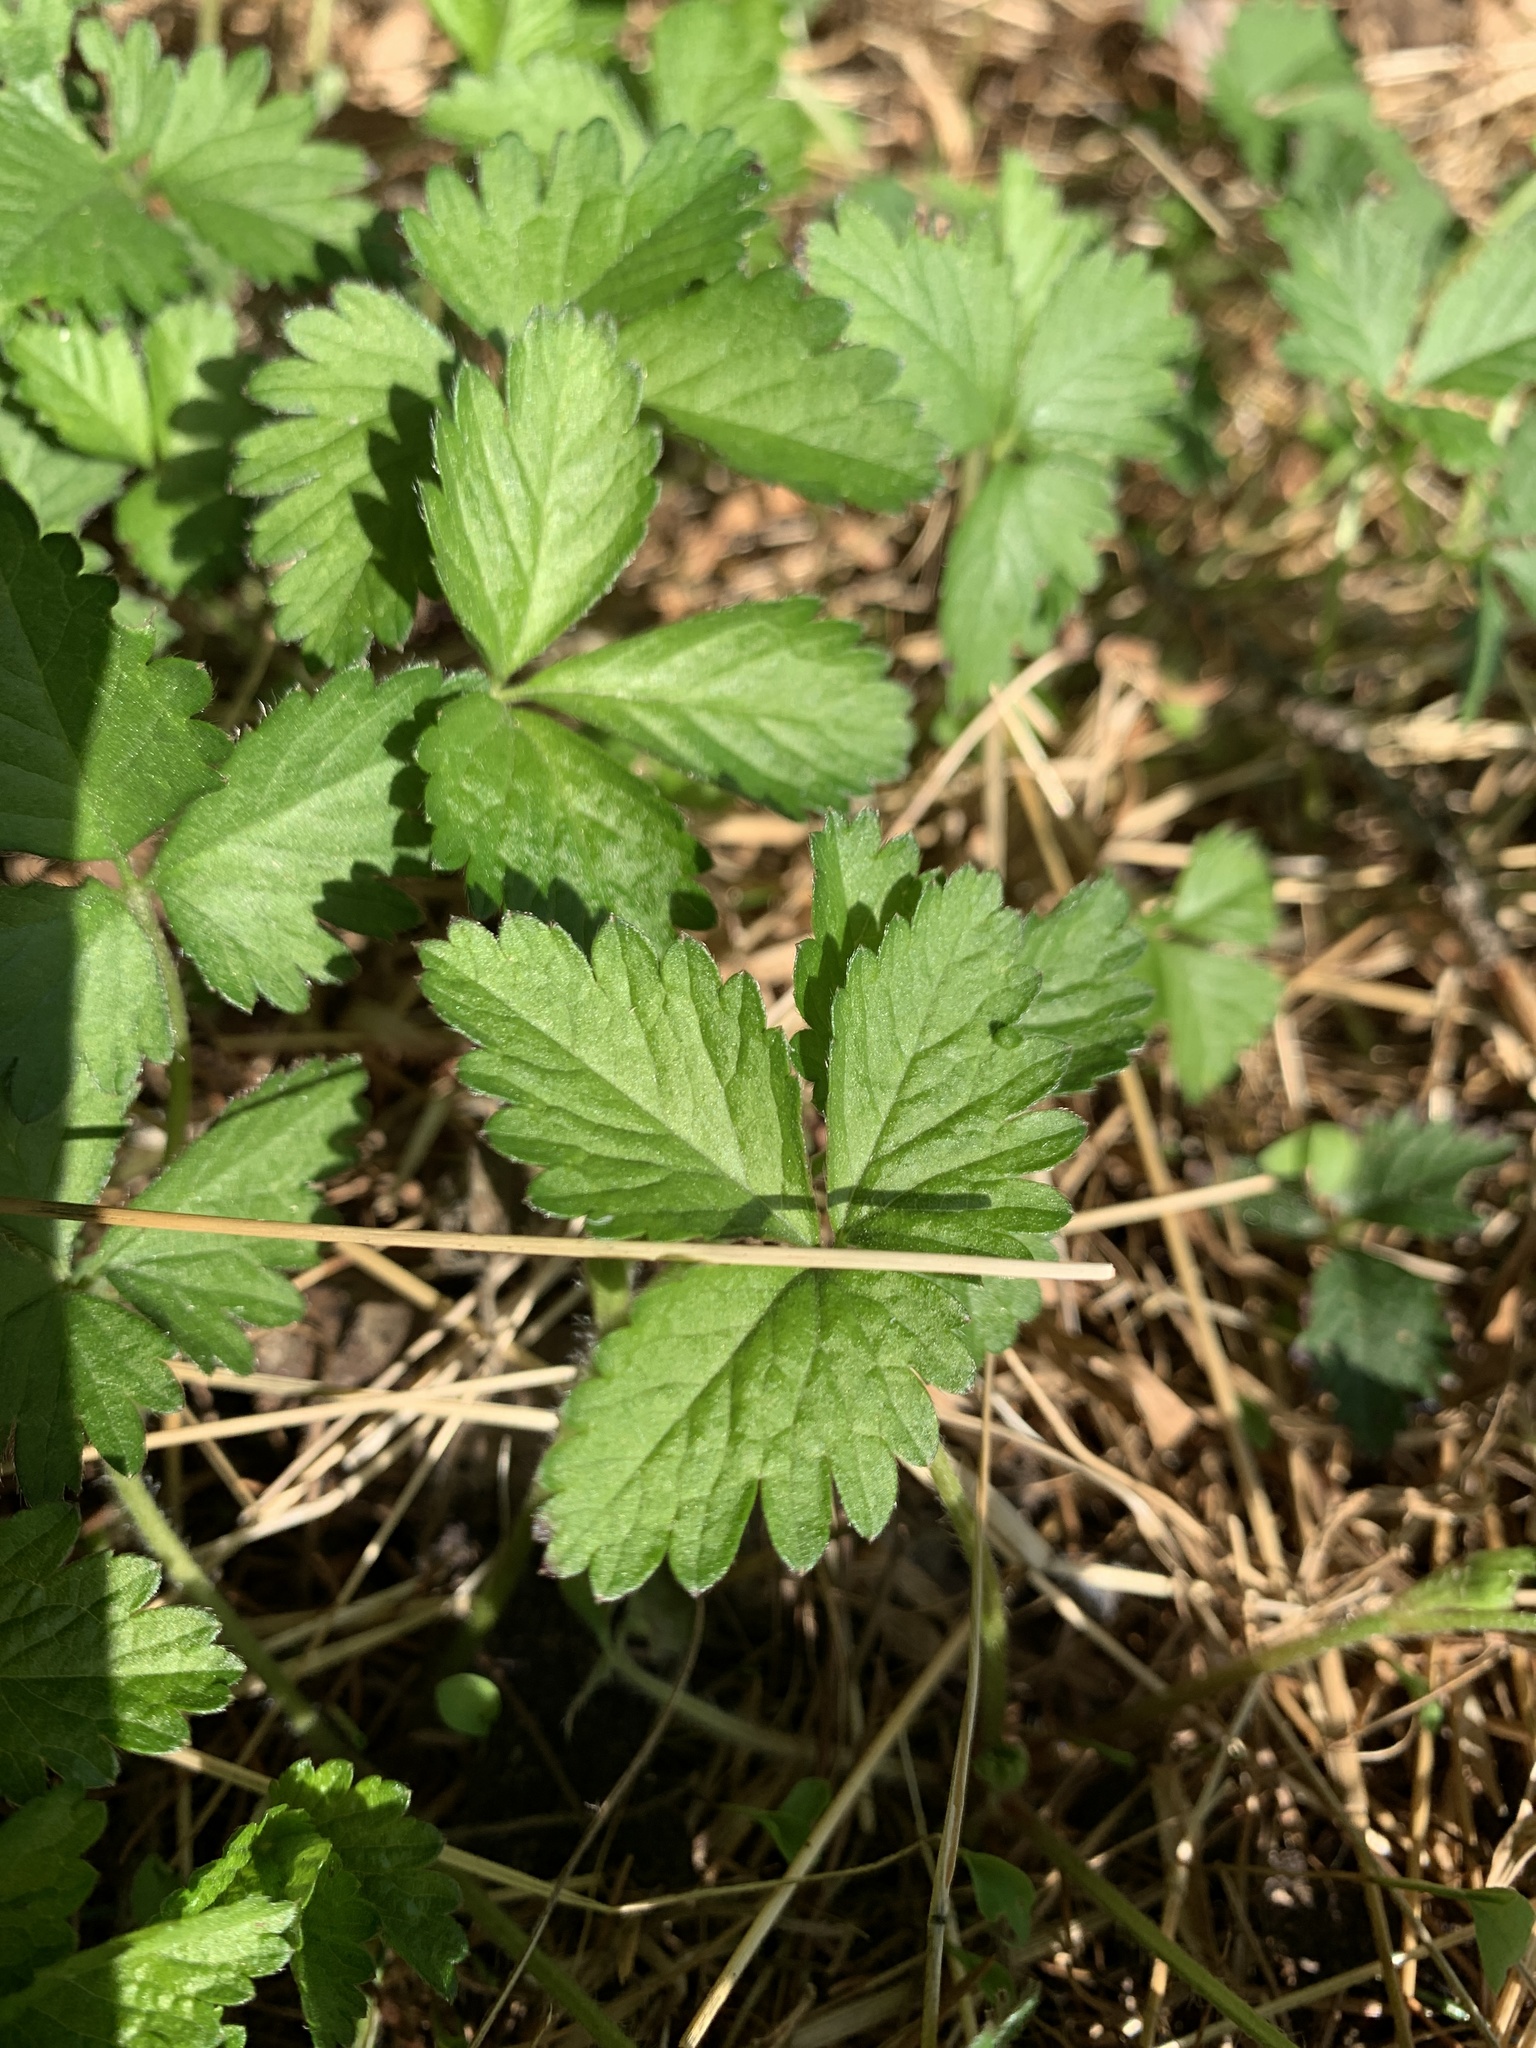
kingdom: Plantae
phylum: Tracheophyta
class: Magnoliopsida
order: Rosales
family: Rosaceae
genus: Potentilla
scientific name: Potentilla indica
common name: Yellow-flowered strawberry
